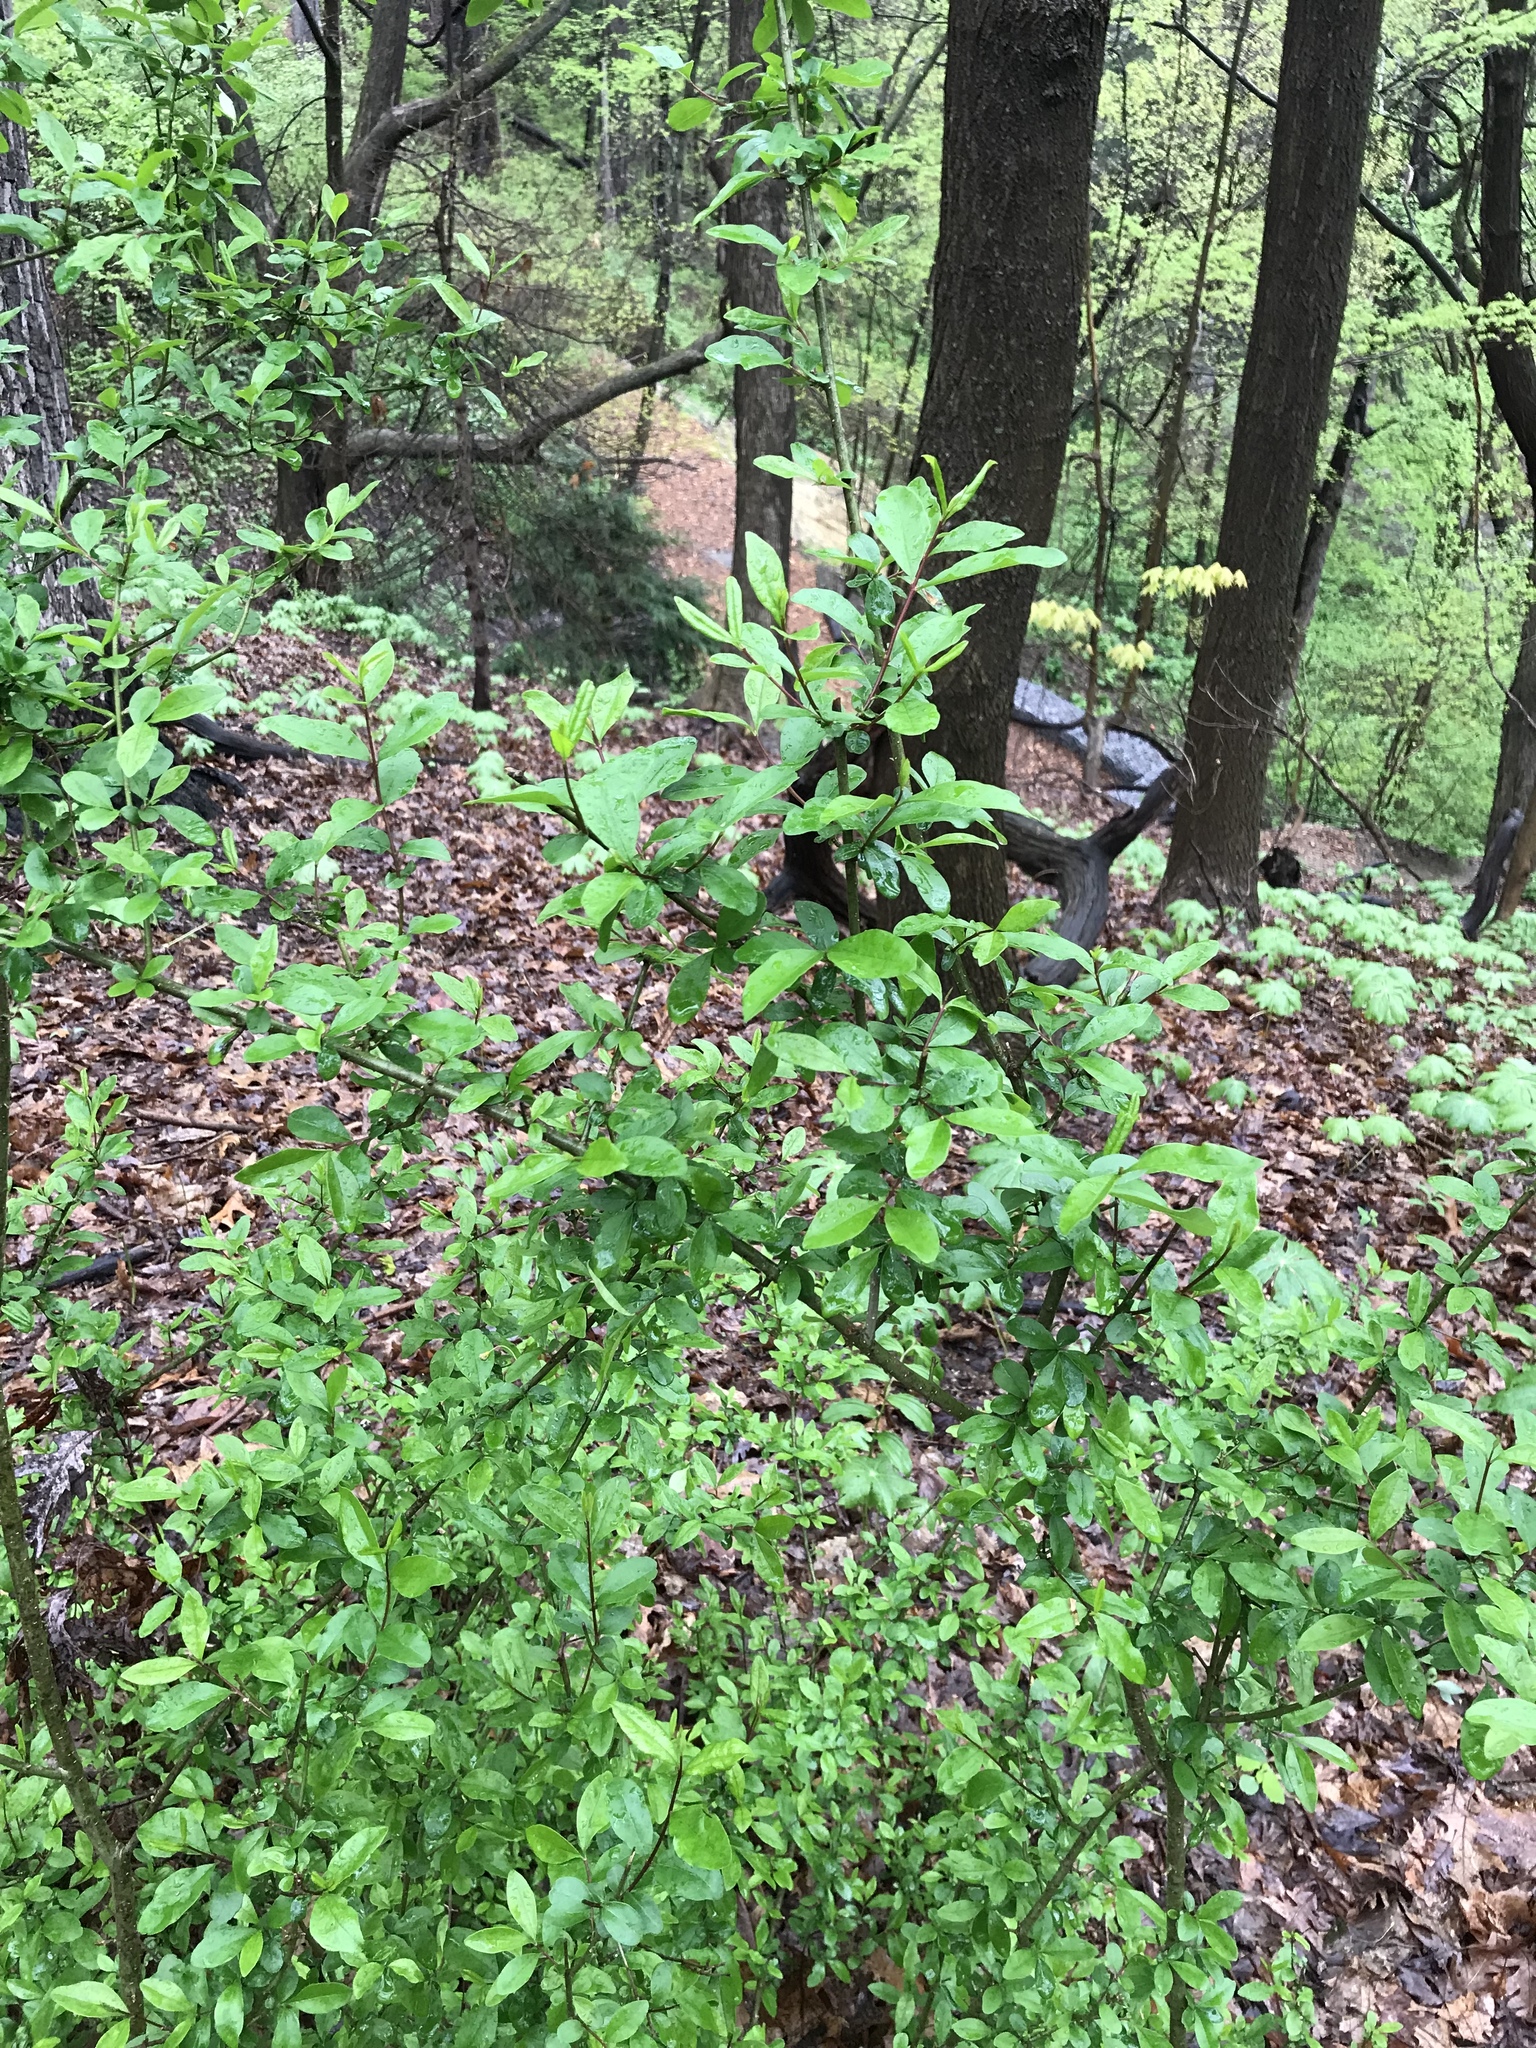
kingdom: Plantae
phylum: Tracheophyta
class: Magnoliopsida
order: Lamiales
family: Oleaceae
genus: Ligustrum
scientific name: Ligustrum obtusifolium
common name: Border privet
